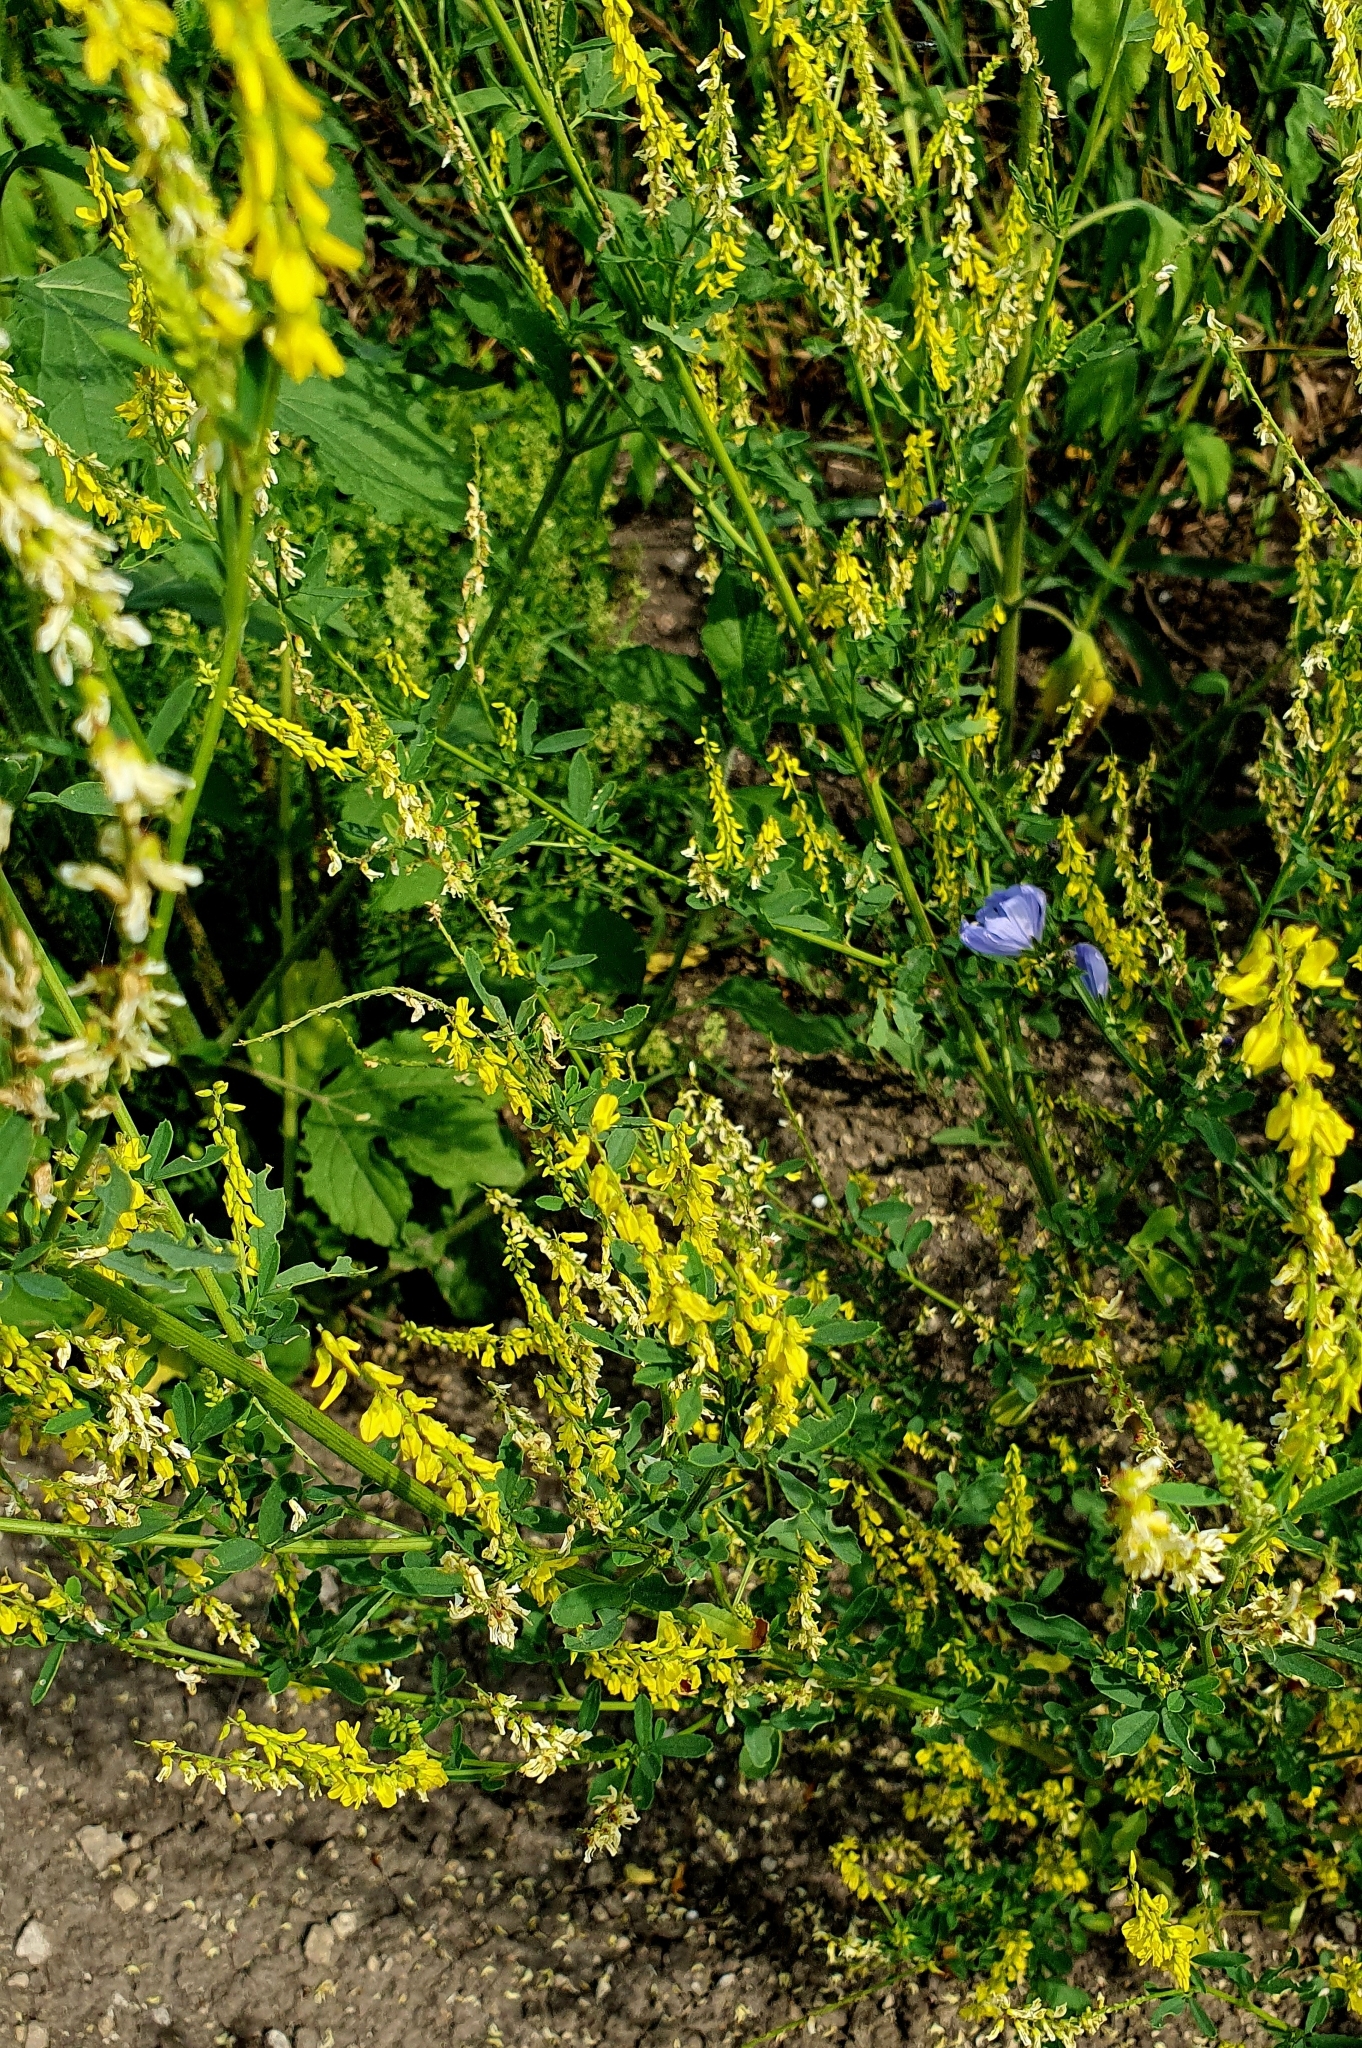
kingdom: Plantae
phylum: Tracheophyta
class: Magnoliopsida
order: Fabales
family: Fabaceae
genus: Melilotus
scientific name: Melilotus officinalis
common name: Sweetclover
